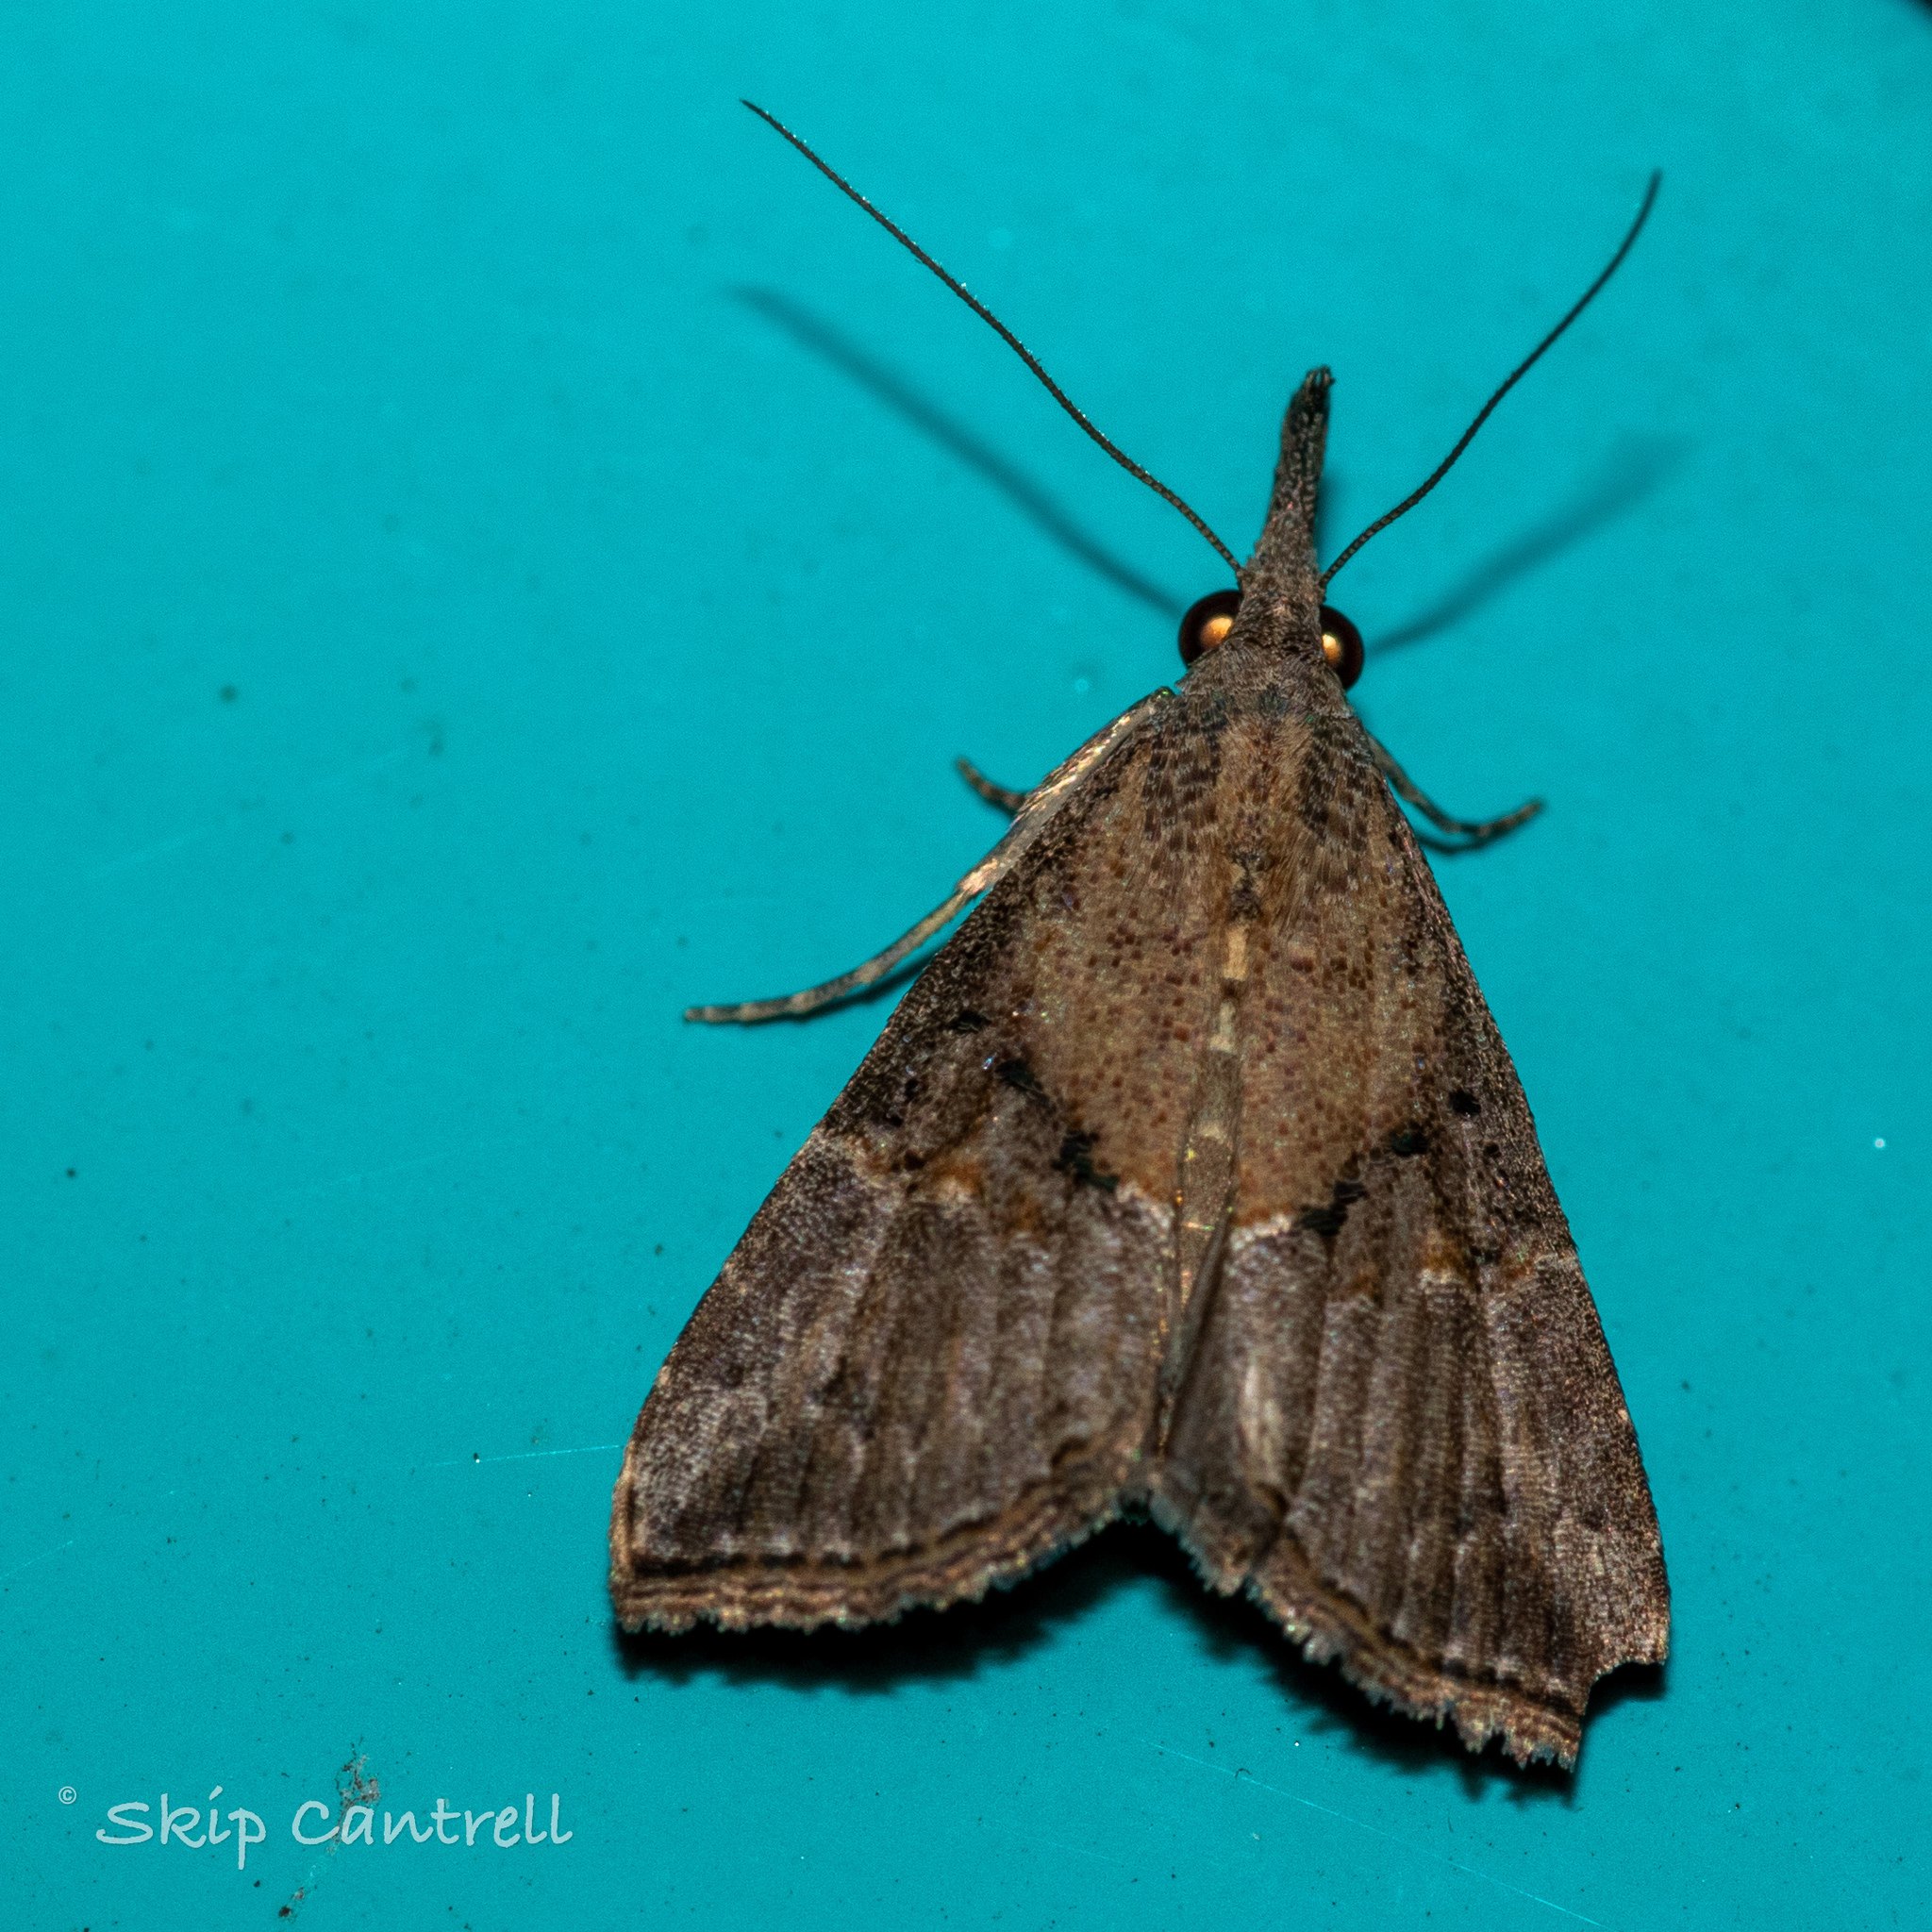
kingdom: Animalia
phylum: Arthropoda
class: Insecta
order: Lepidoptera
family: Erebidae
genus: Hypena
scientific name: Hypena minualis
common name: Sooty snout
